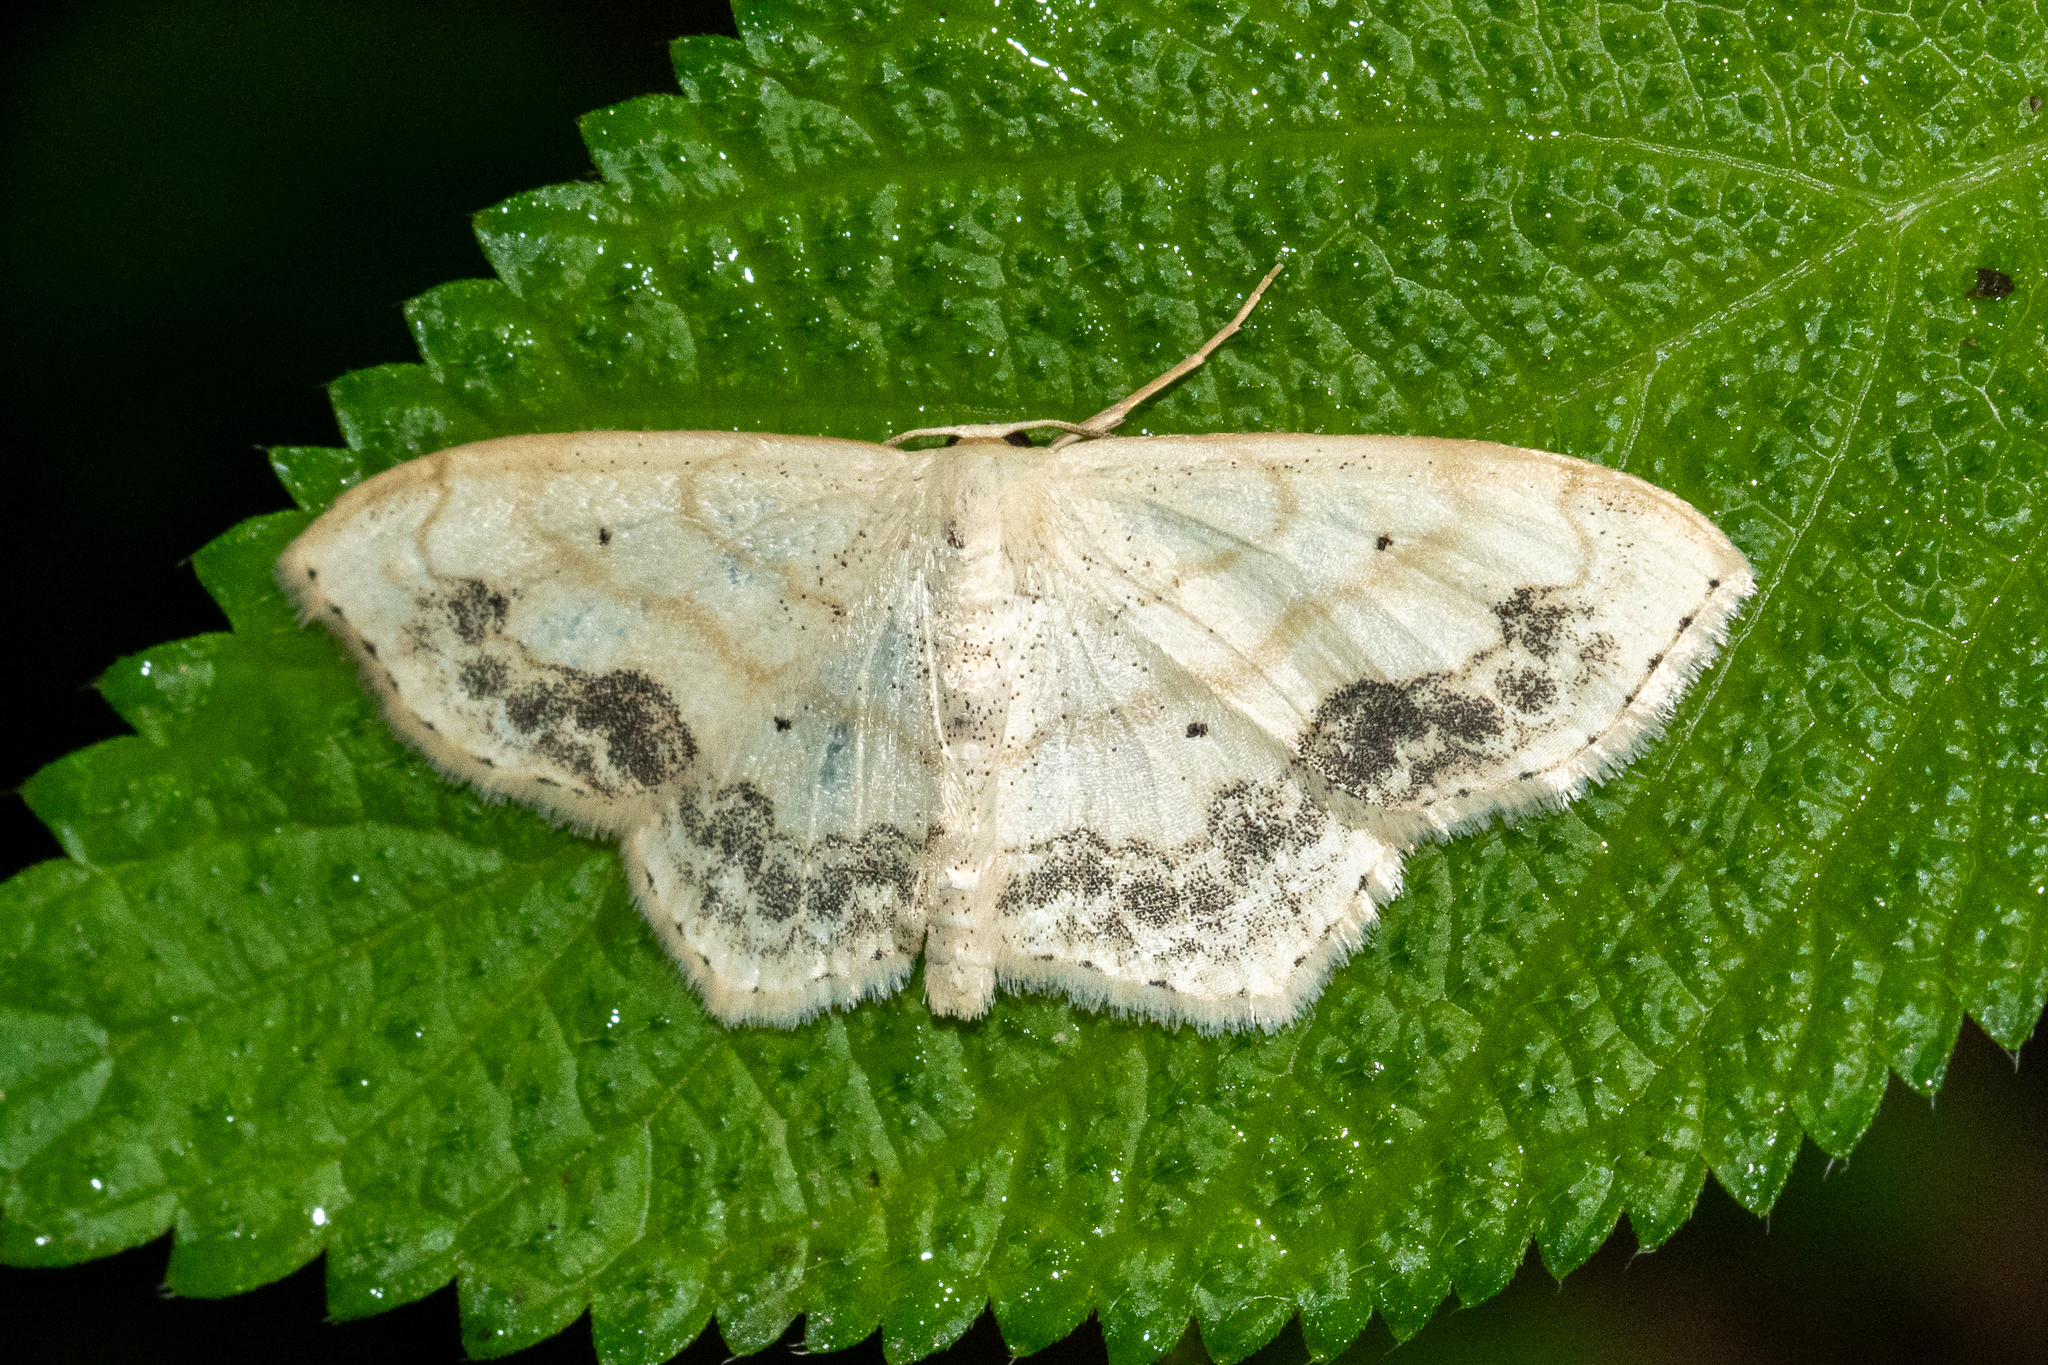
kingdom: Animalia
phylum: Arthropoda
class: Insecta
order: Lepidoptera
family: Geometridae
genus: Scopula
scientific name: Scopula limboundata
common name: Large lace border
